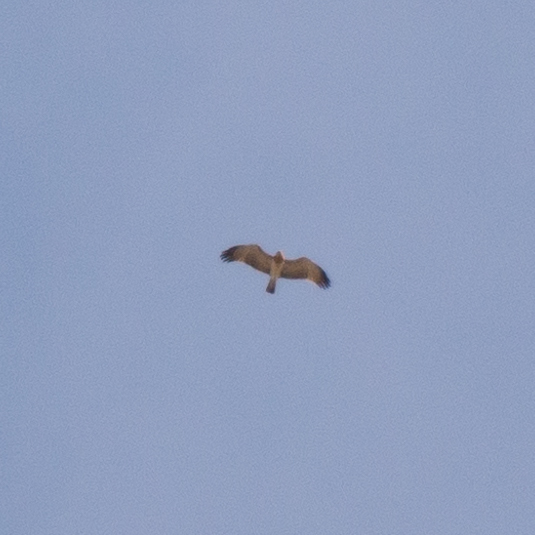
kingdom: Animalia
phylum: Chordata
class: Aves
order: Accipitriformes
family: Accipitridae
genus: Circaetus
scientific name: Circaetus gallicus
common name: Short-toed snake eagle
